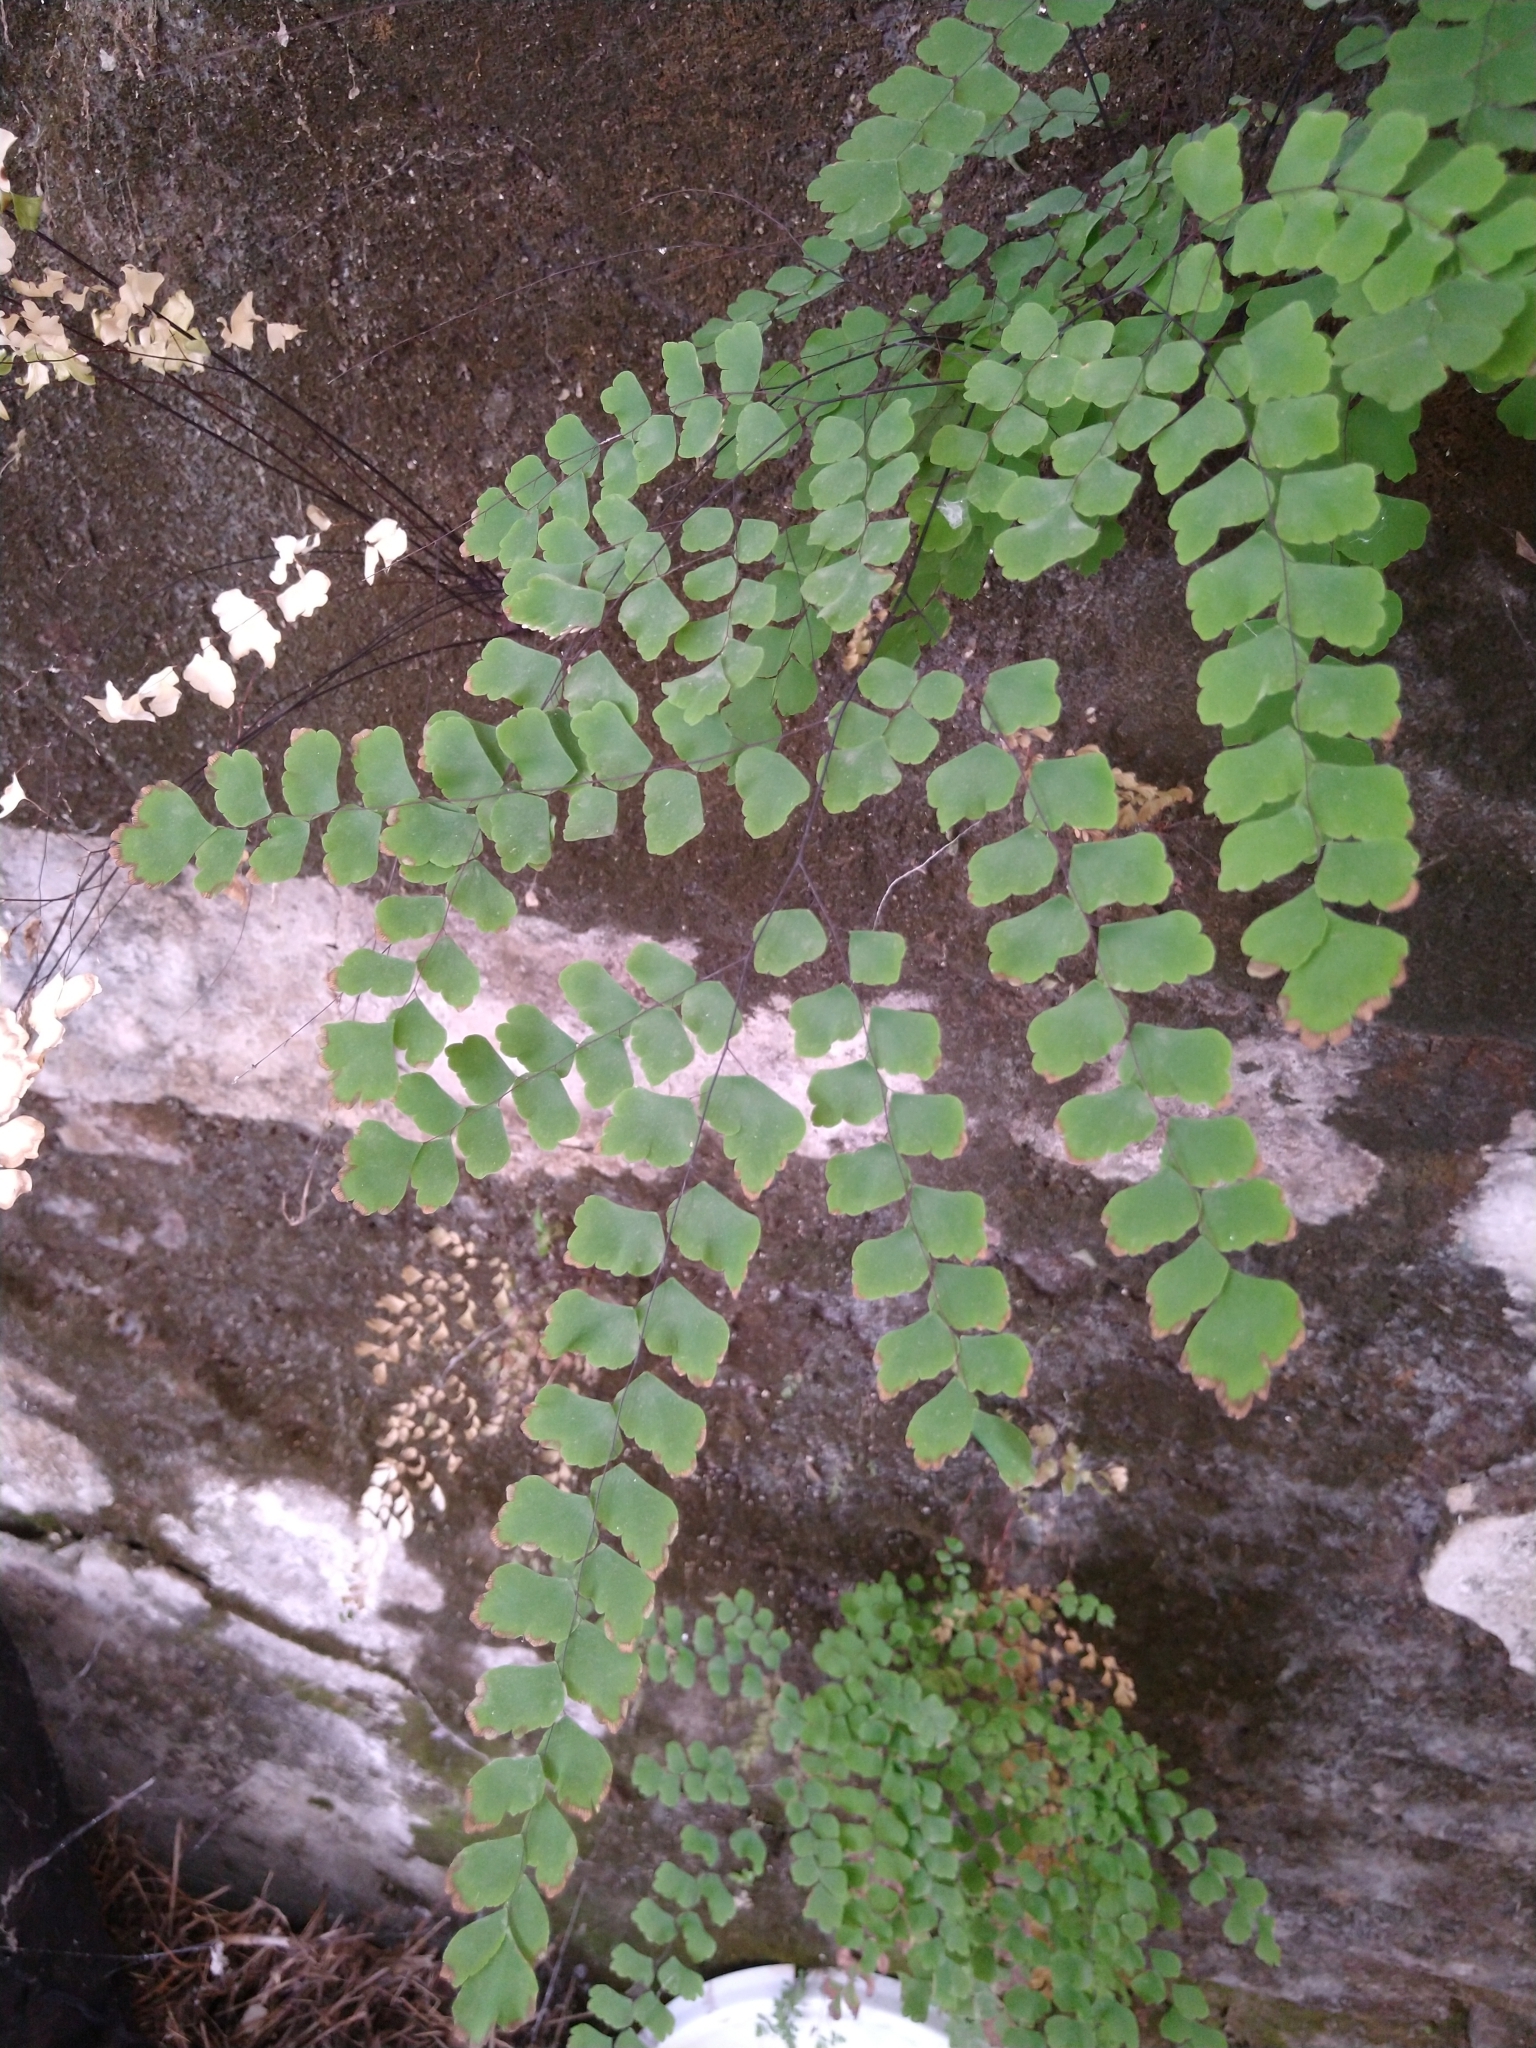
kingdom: Plantae
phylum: Tracheophyta
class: Polypodiopsida
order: Polypodiales
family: Pteridaceae
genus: Adiantum
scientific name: Adiantum amplum
